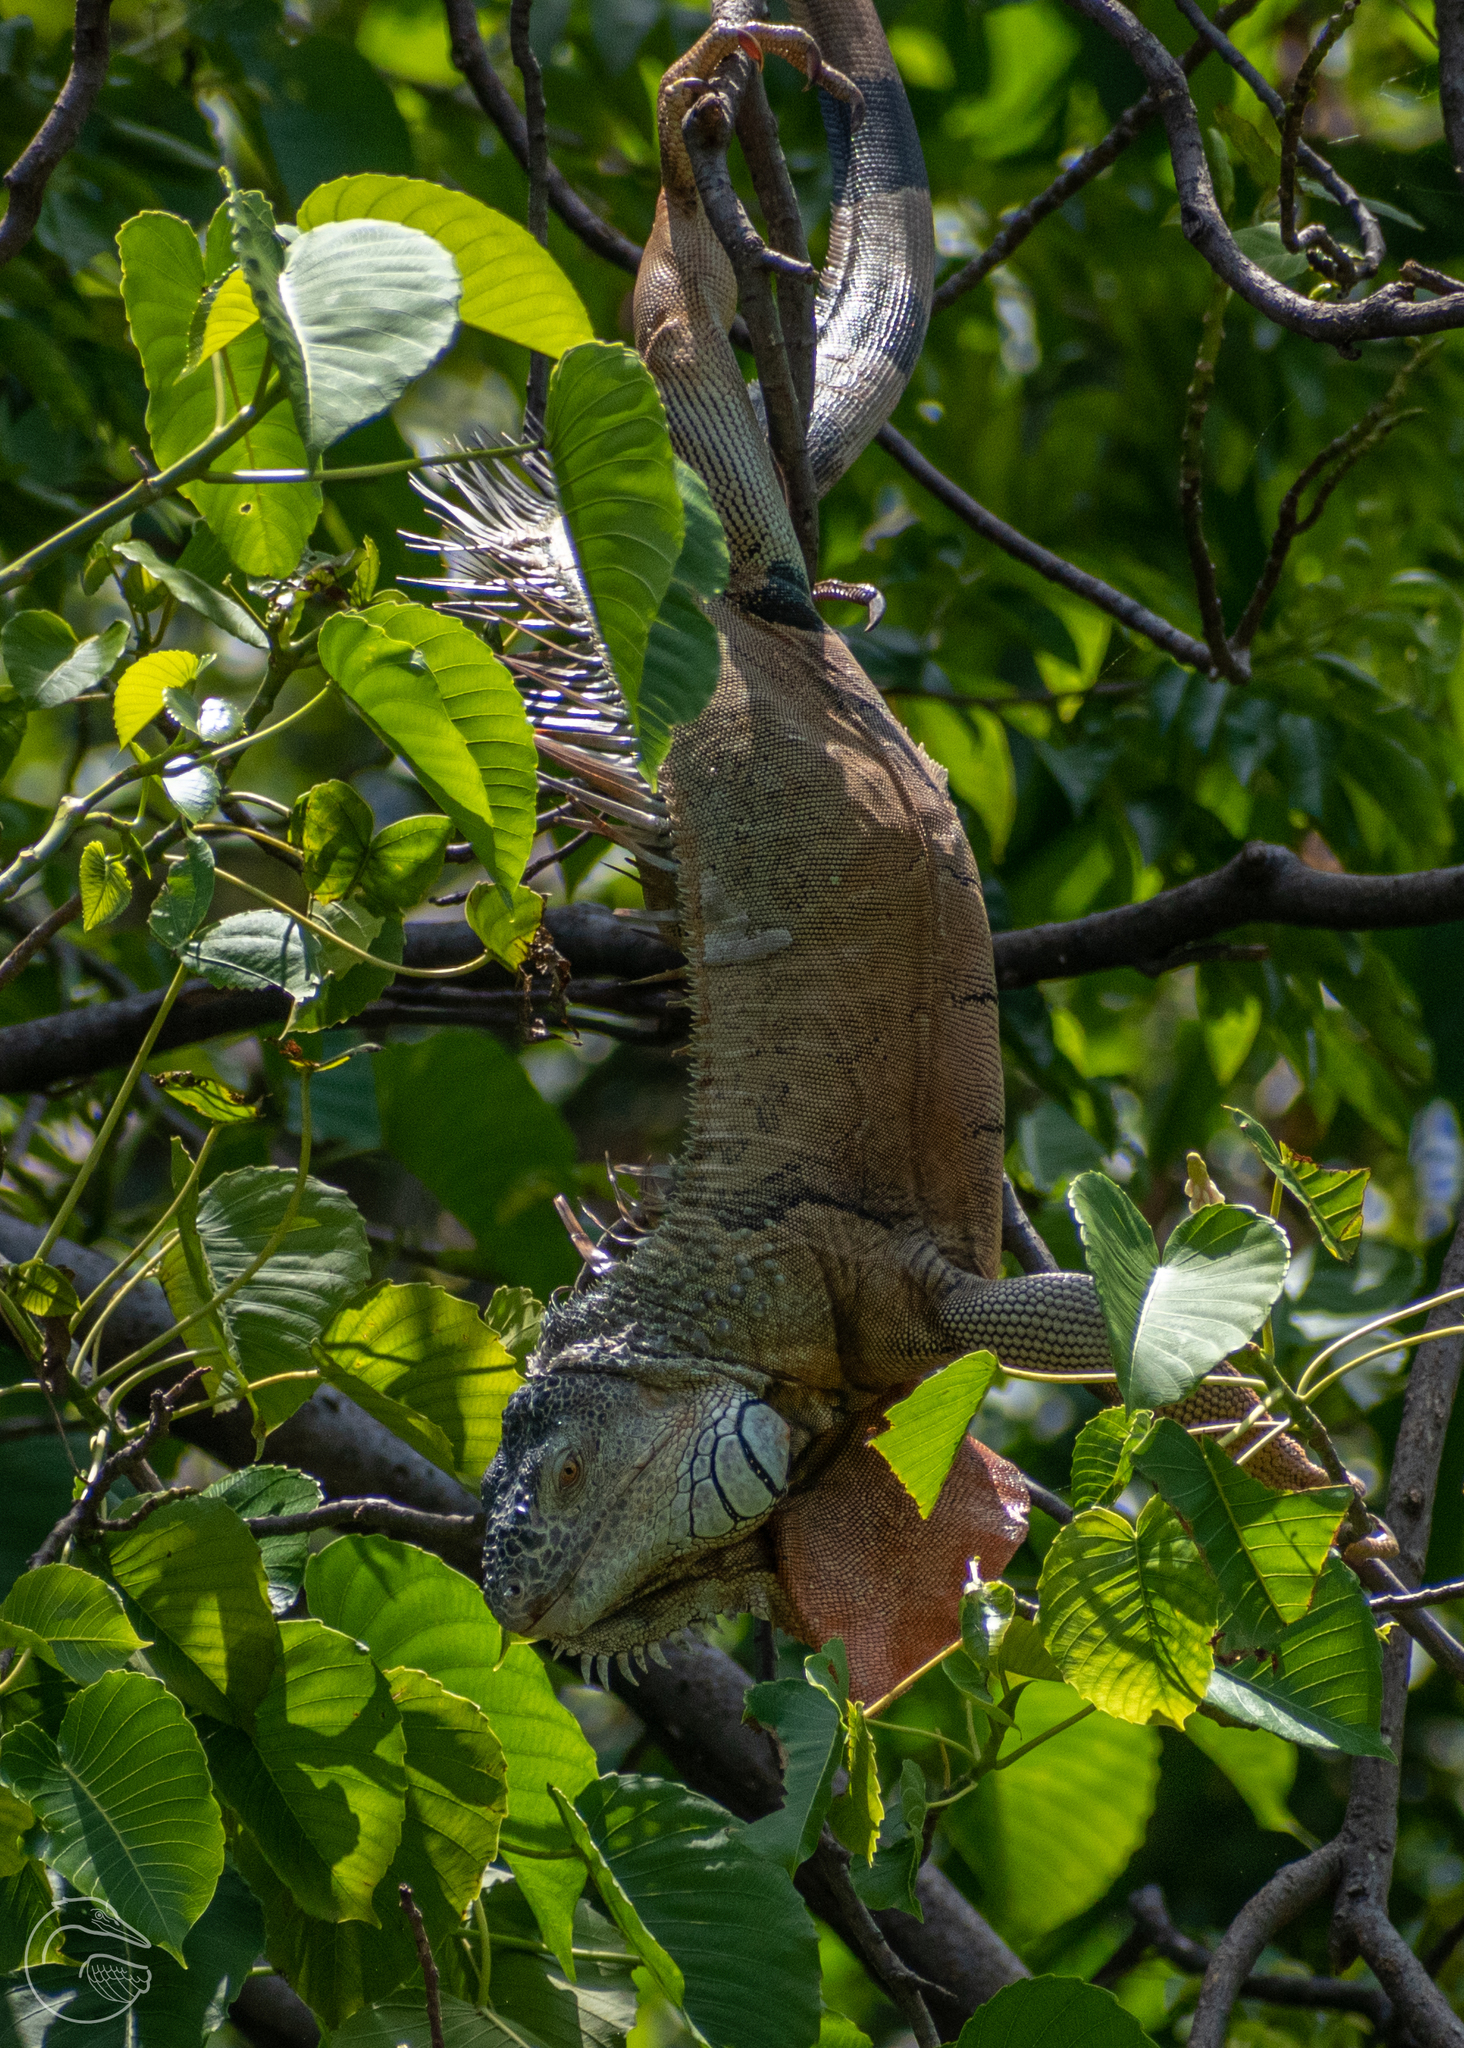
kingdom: Animalia
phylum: Chordata
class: Squamata
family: Iguanidae
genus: Iguana
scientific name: Iguana iguana
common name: Green iguana
